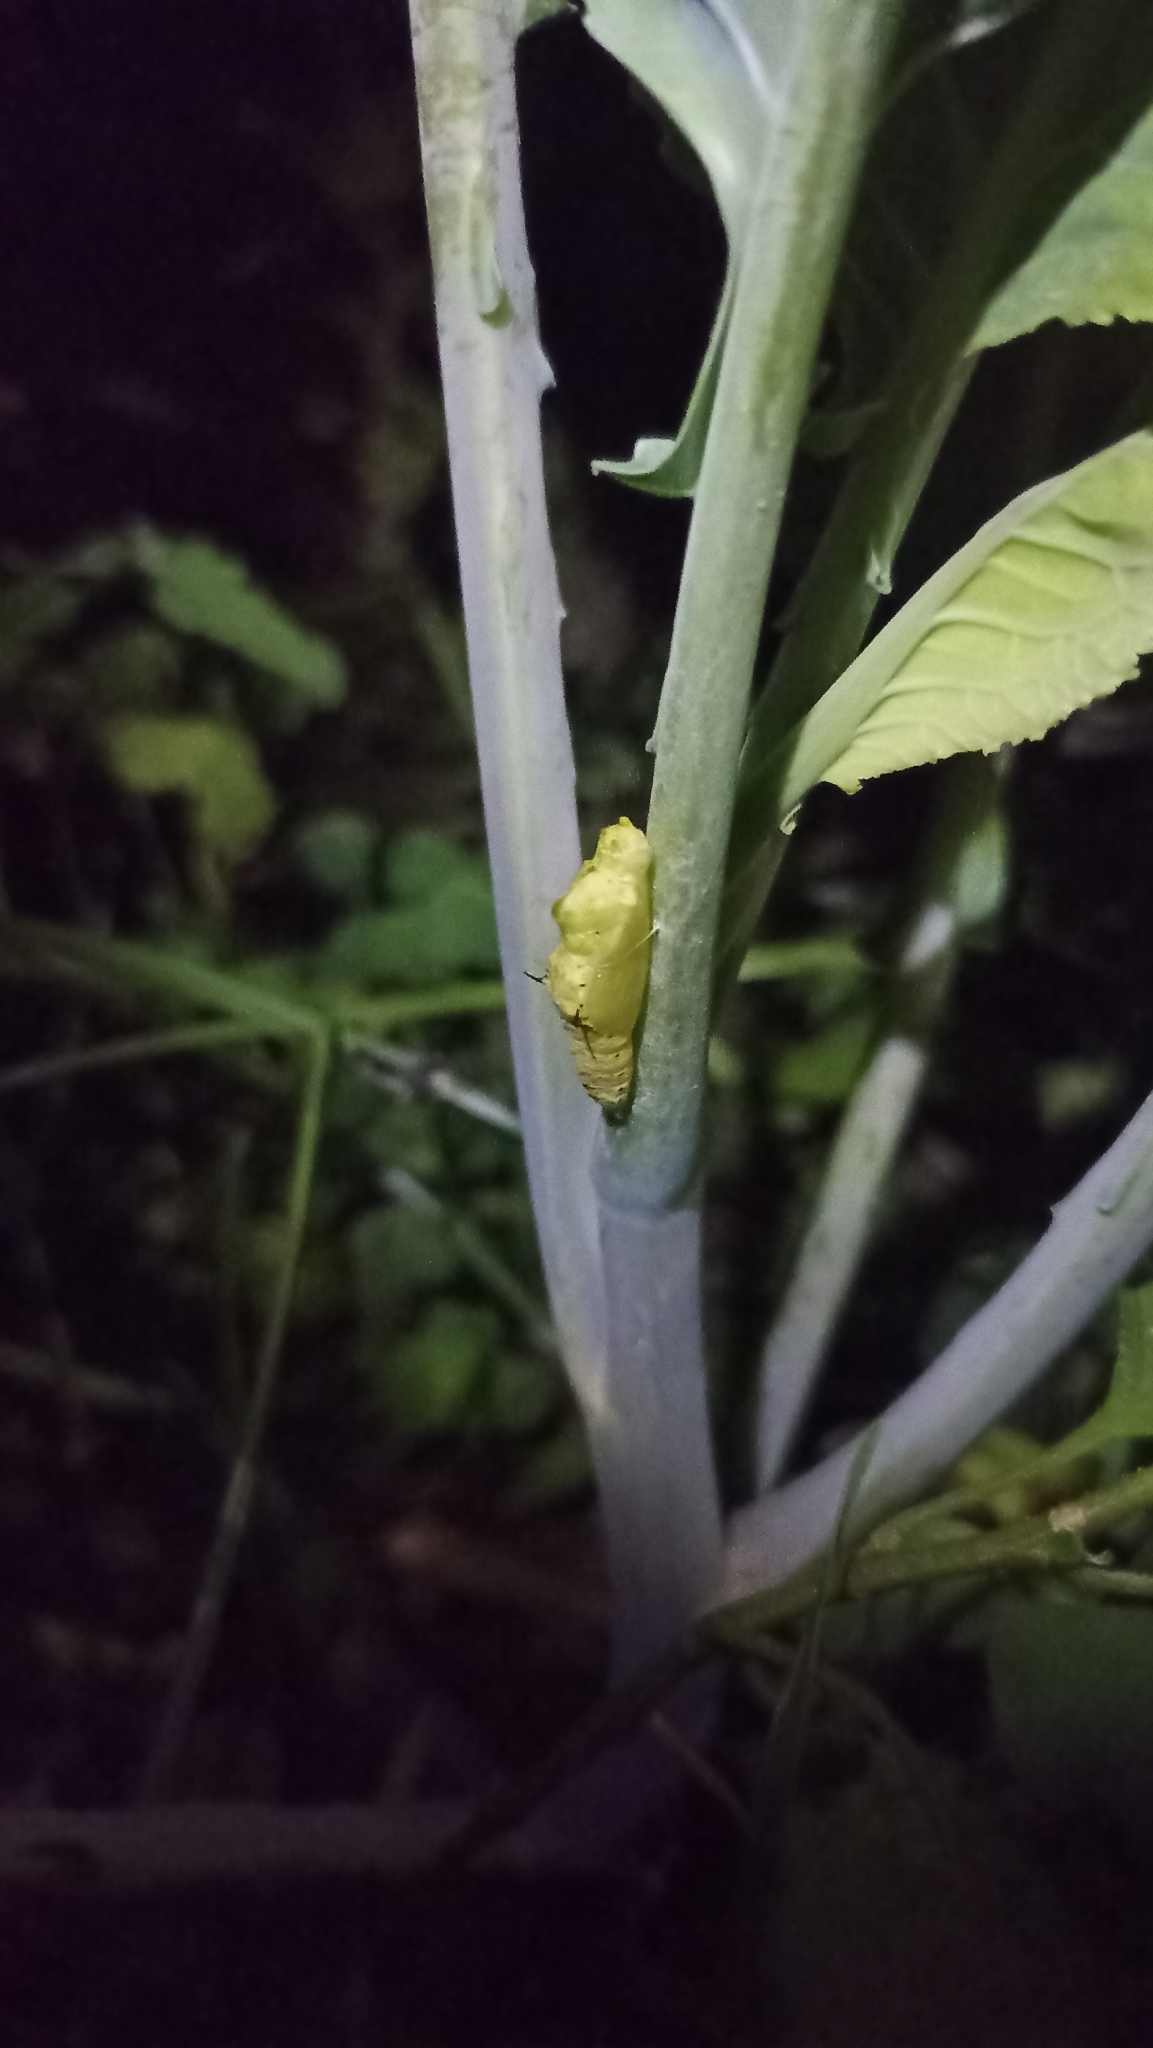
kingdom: Animalia
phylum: Arthropoda
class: Insecta
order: Lepidoptera
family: Pieridae
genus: Ascia
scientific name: Ascia monuste
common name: Great southern white
